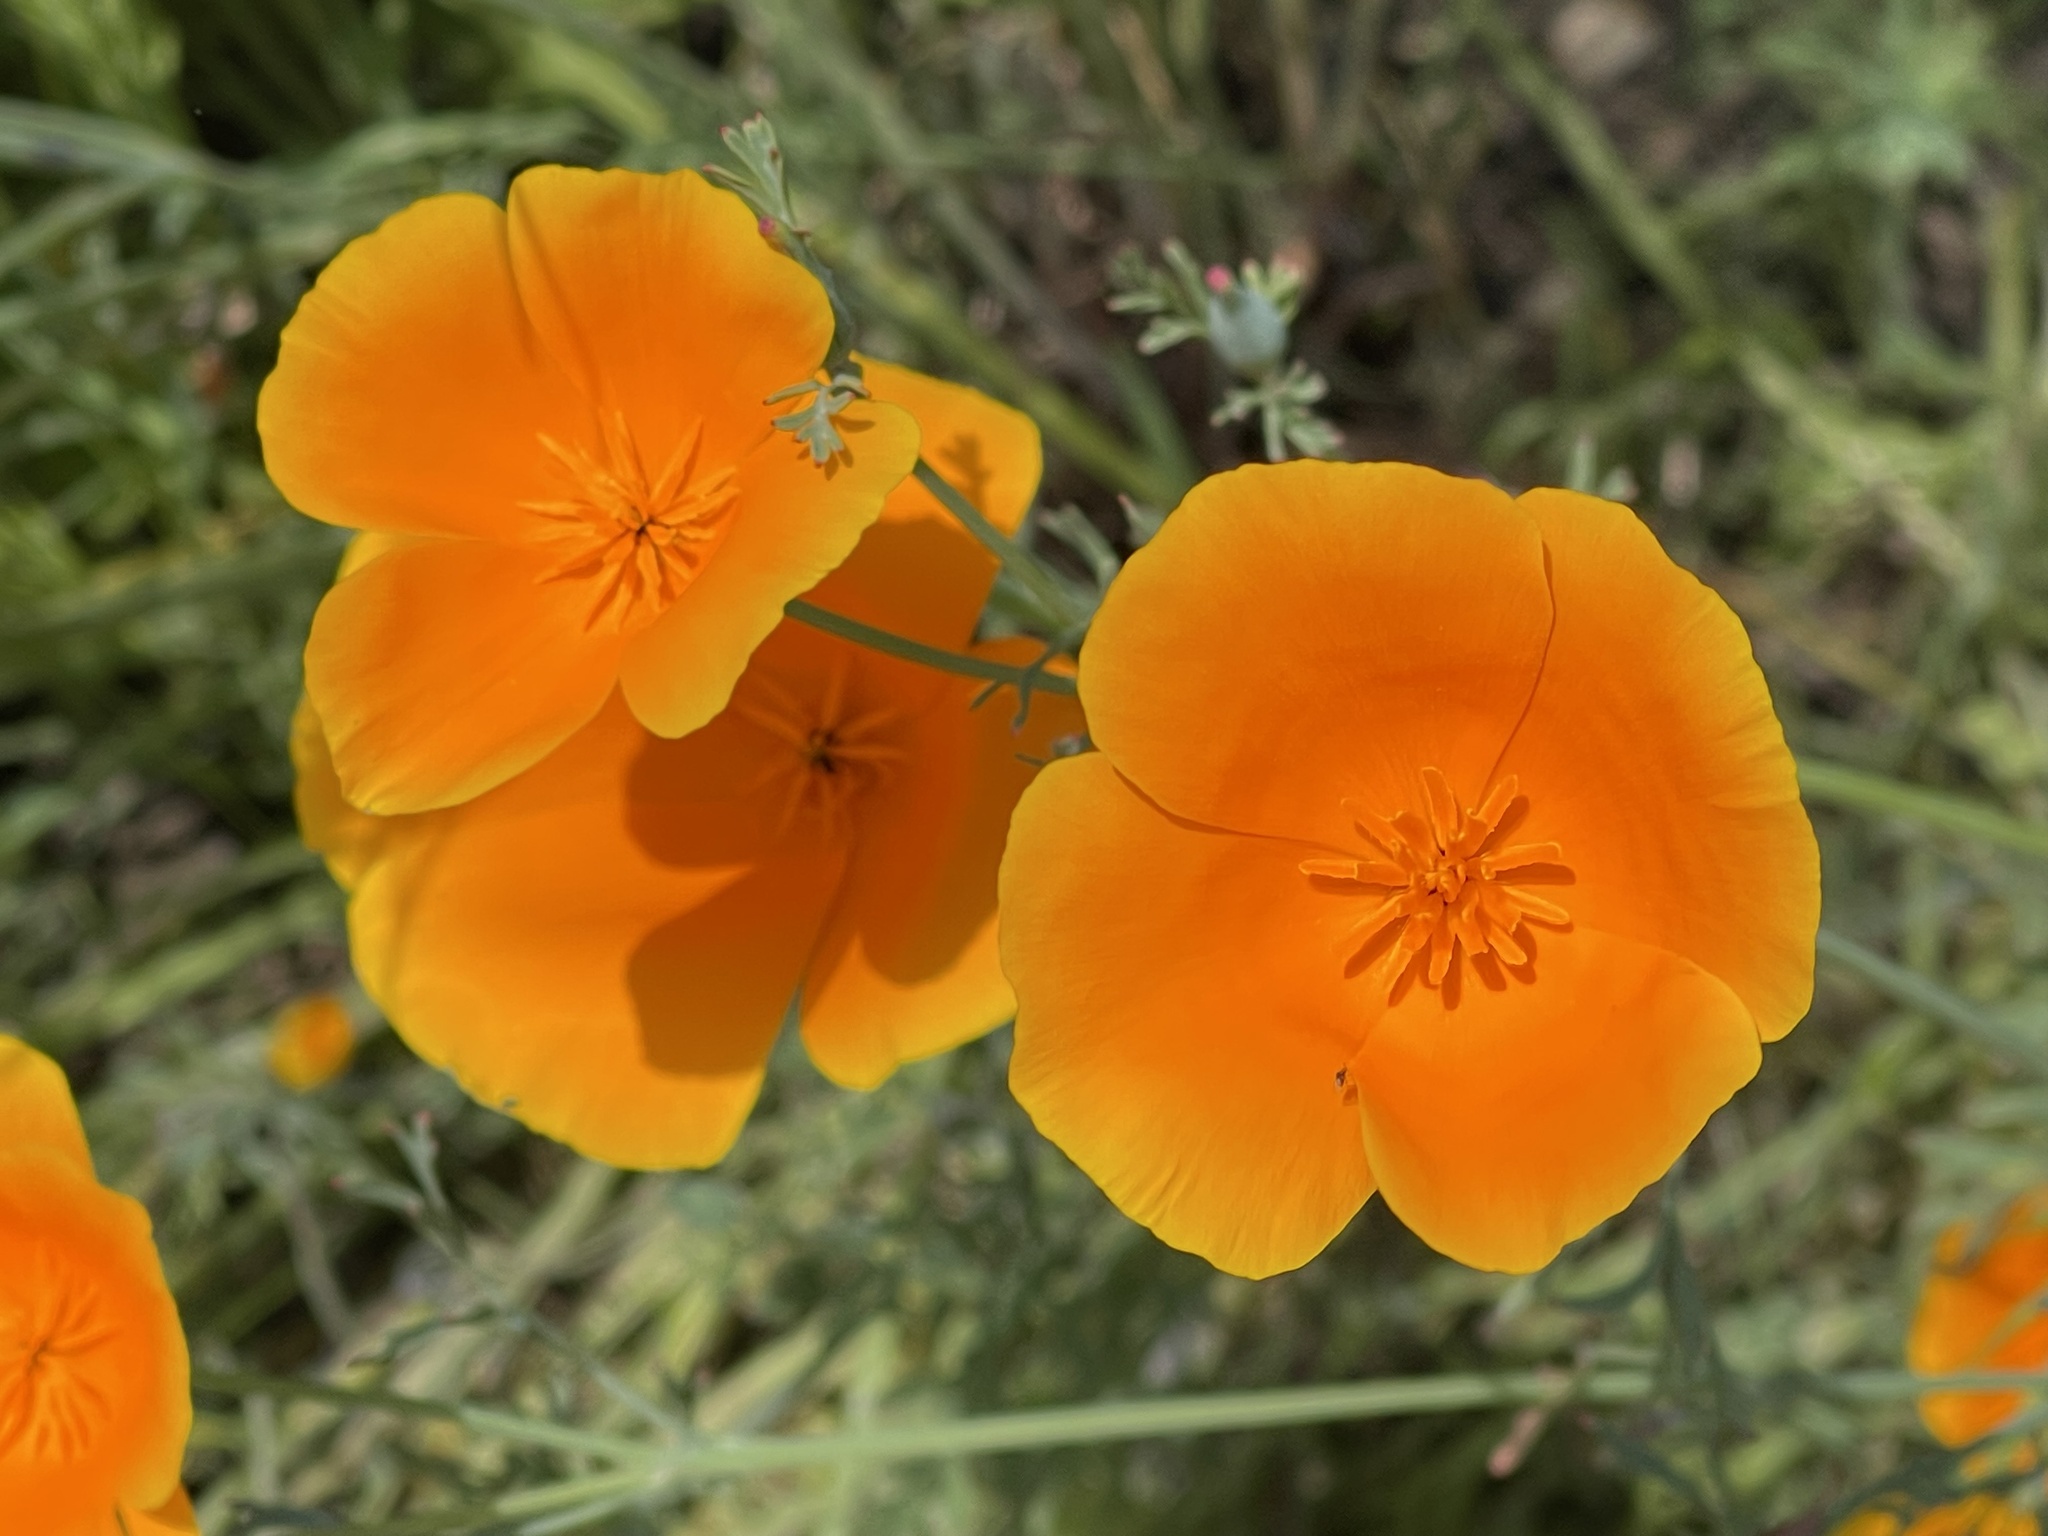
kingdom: Plantae
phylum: Tracheophyta
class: Magnoliopsida
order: Ranunculales
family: Papaveraceae
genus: Eschscholzia
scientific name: Eschscholzia californica
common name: California poppy
